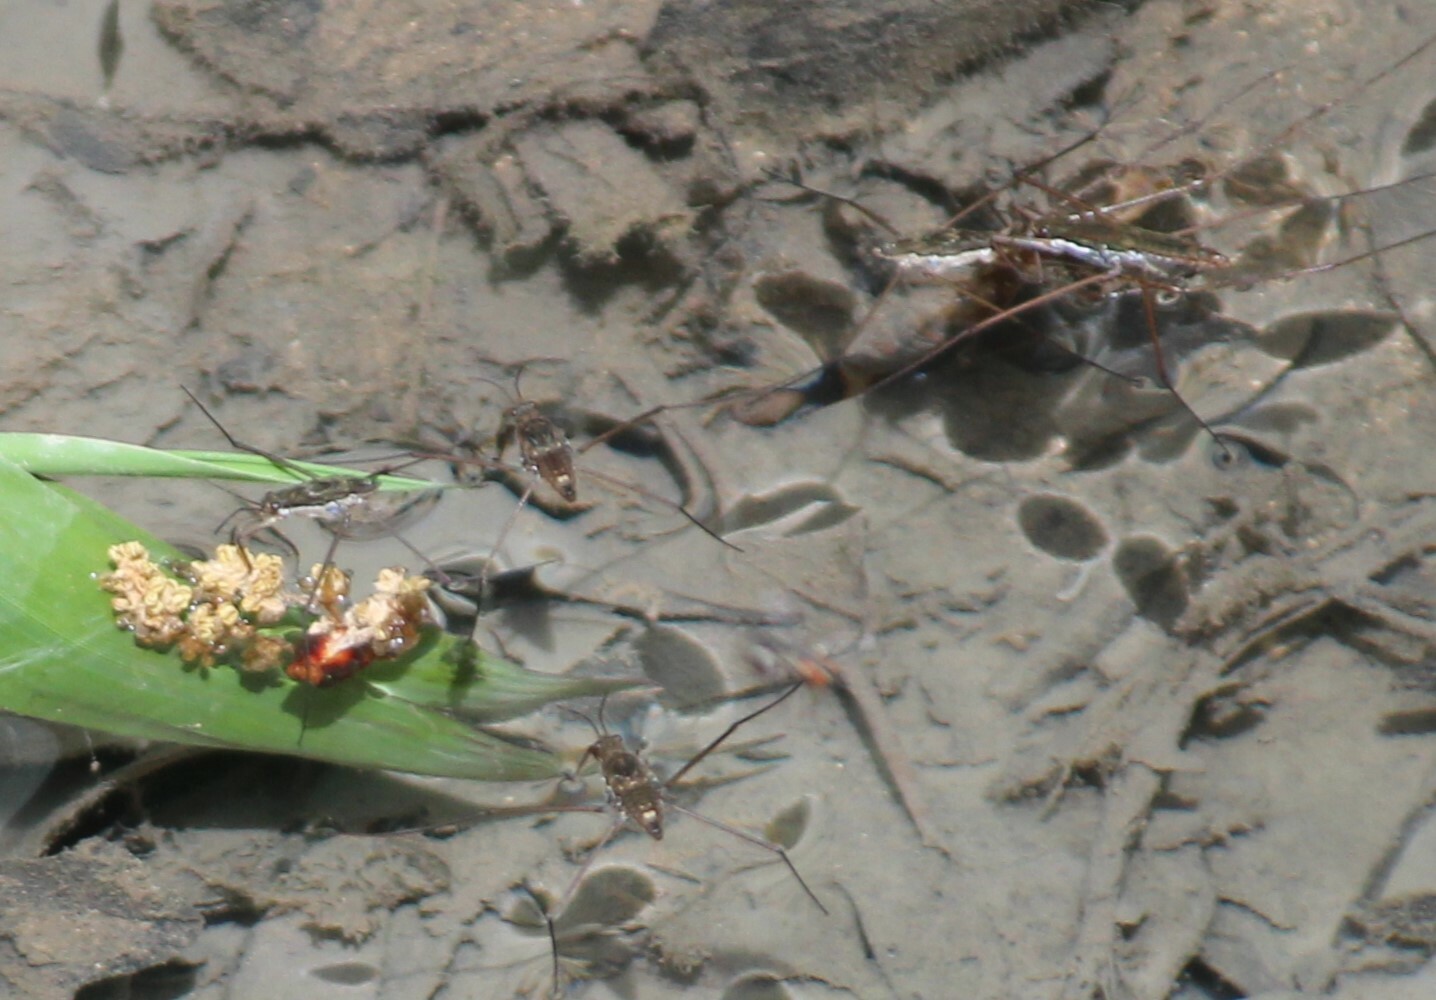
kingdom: Animalia
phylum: Arthropoda
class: Insecta
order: Hemiptera
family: Gerridae
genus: Aquarius
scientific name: Aquarius remigis
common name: Common water strider
